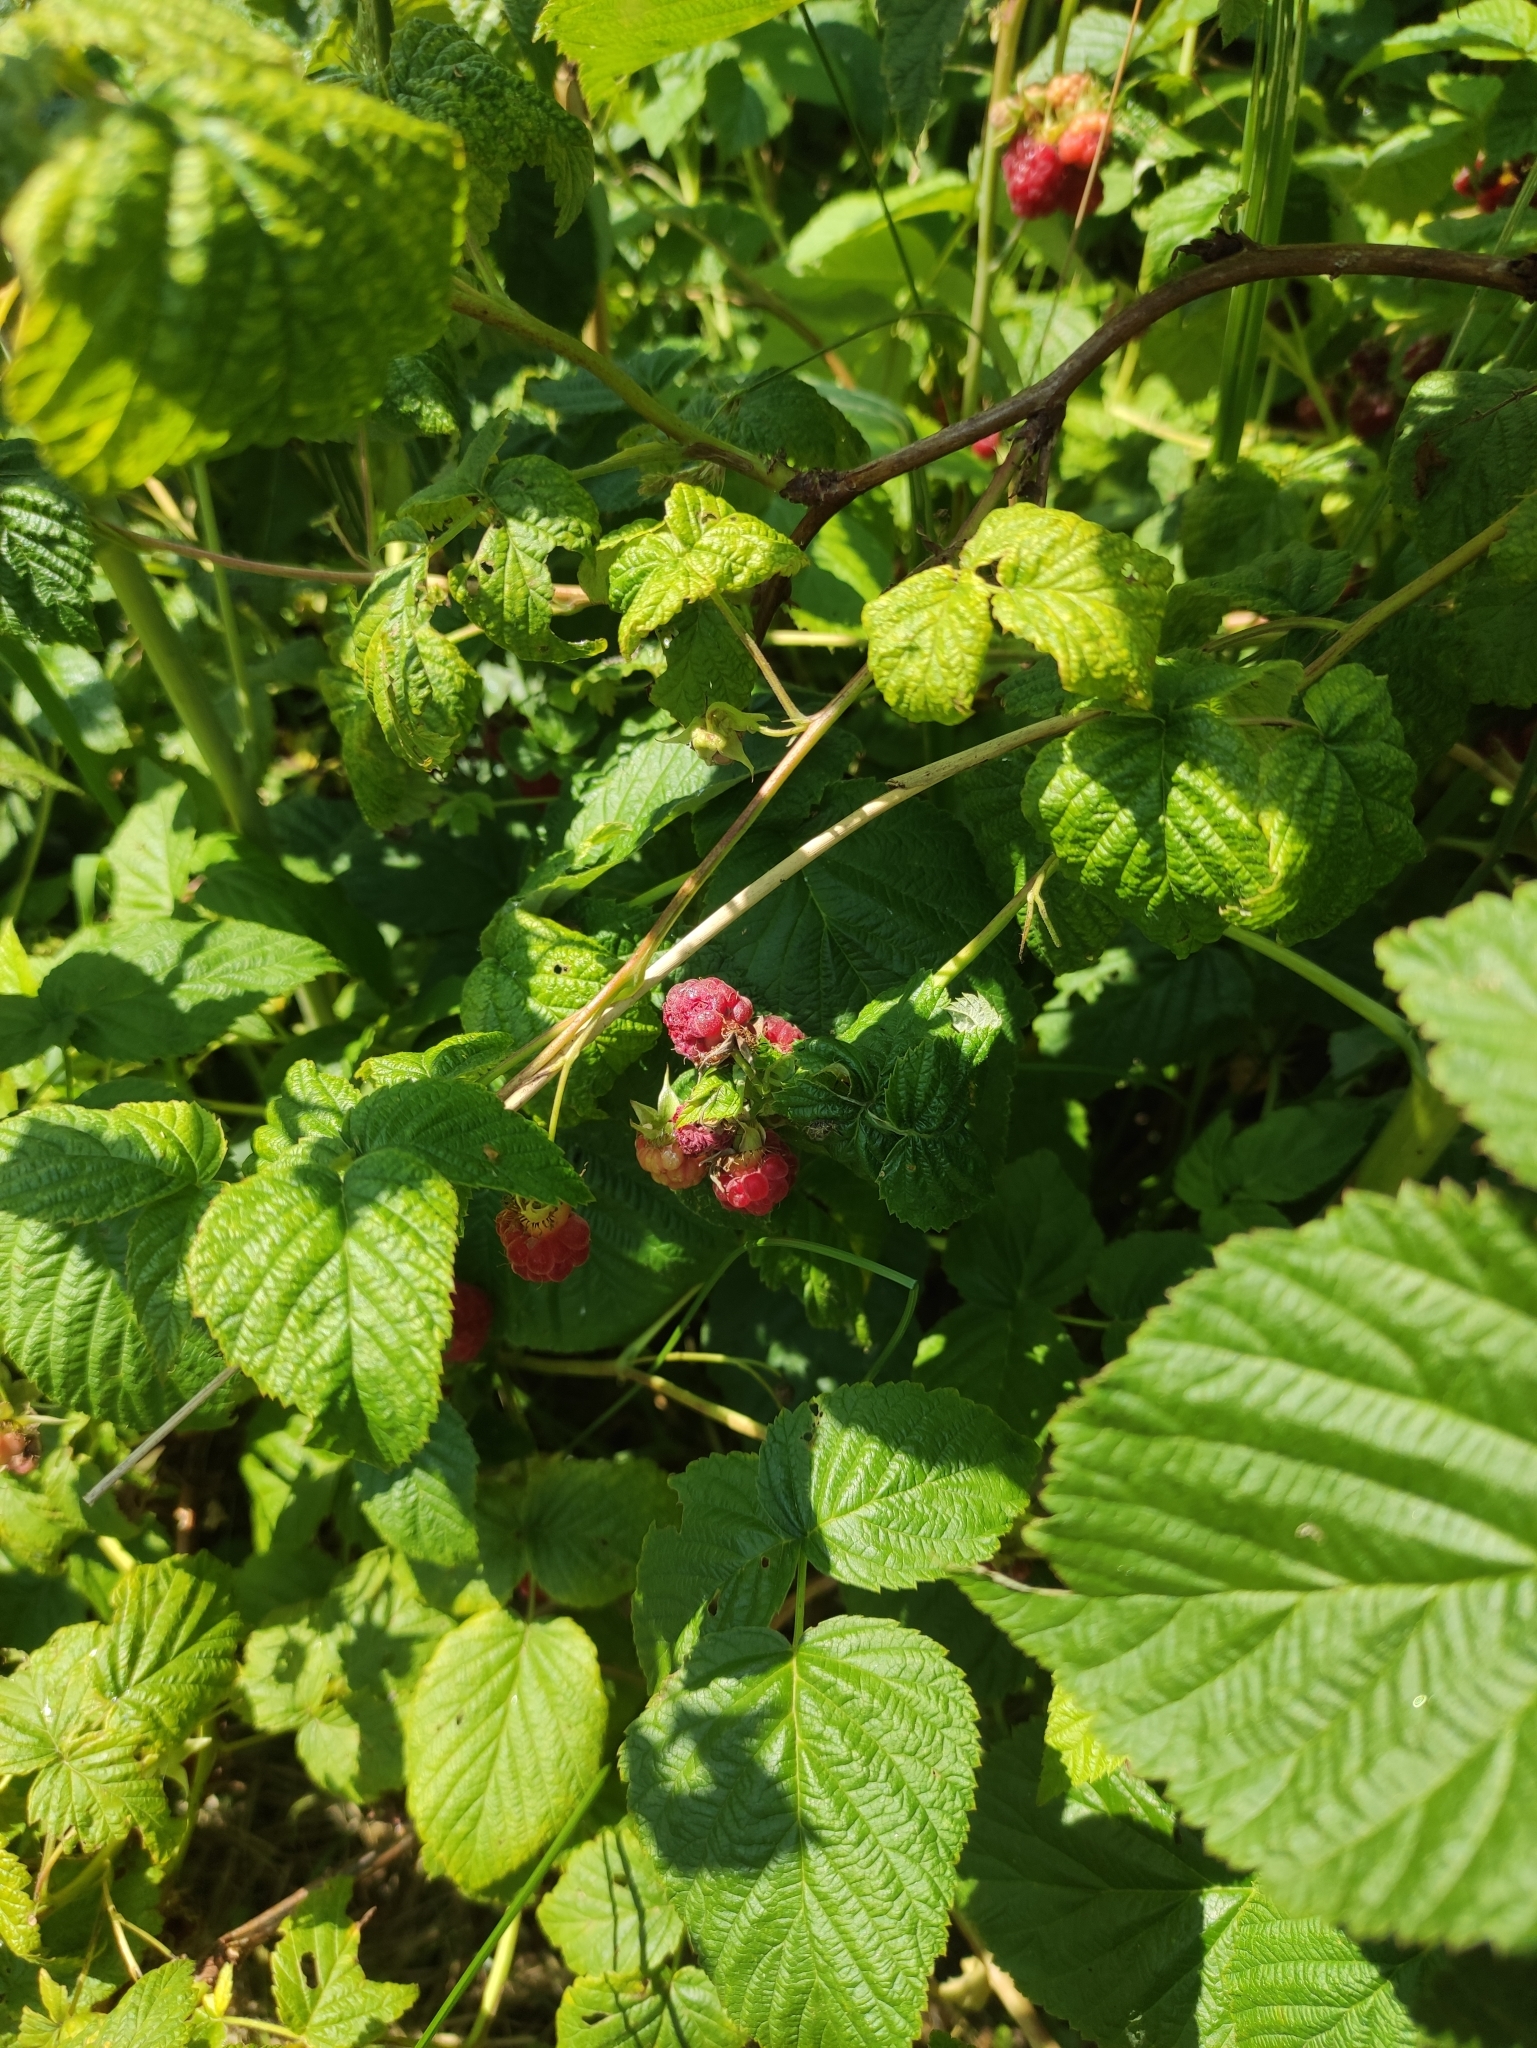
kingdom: Plantae
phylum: Tracheophyta
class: Magnoliopsida
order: Rosales
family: Rosaceae
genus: Rubus
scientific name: Rubus idaeus
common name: Raspberry
